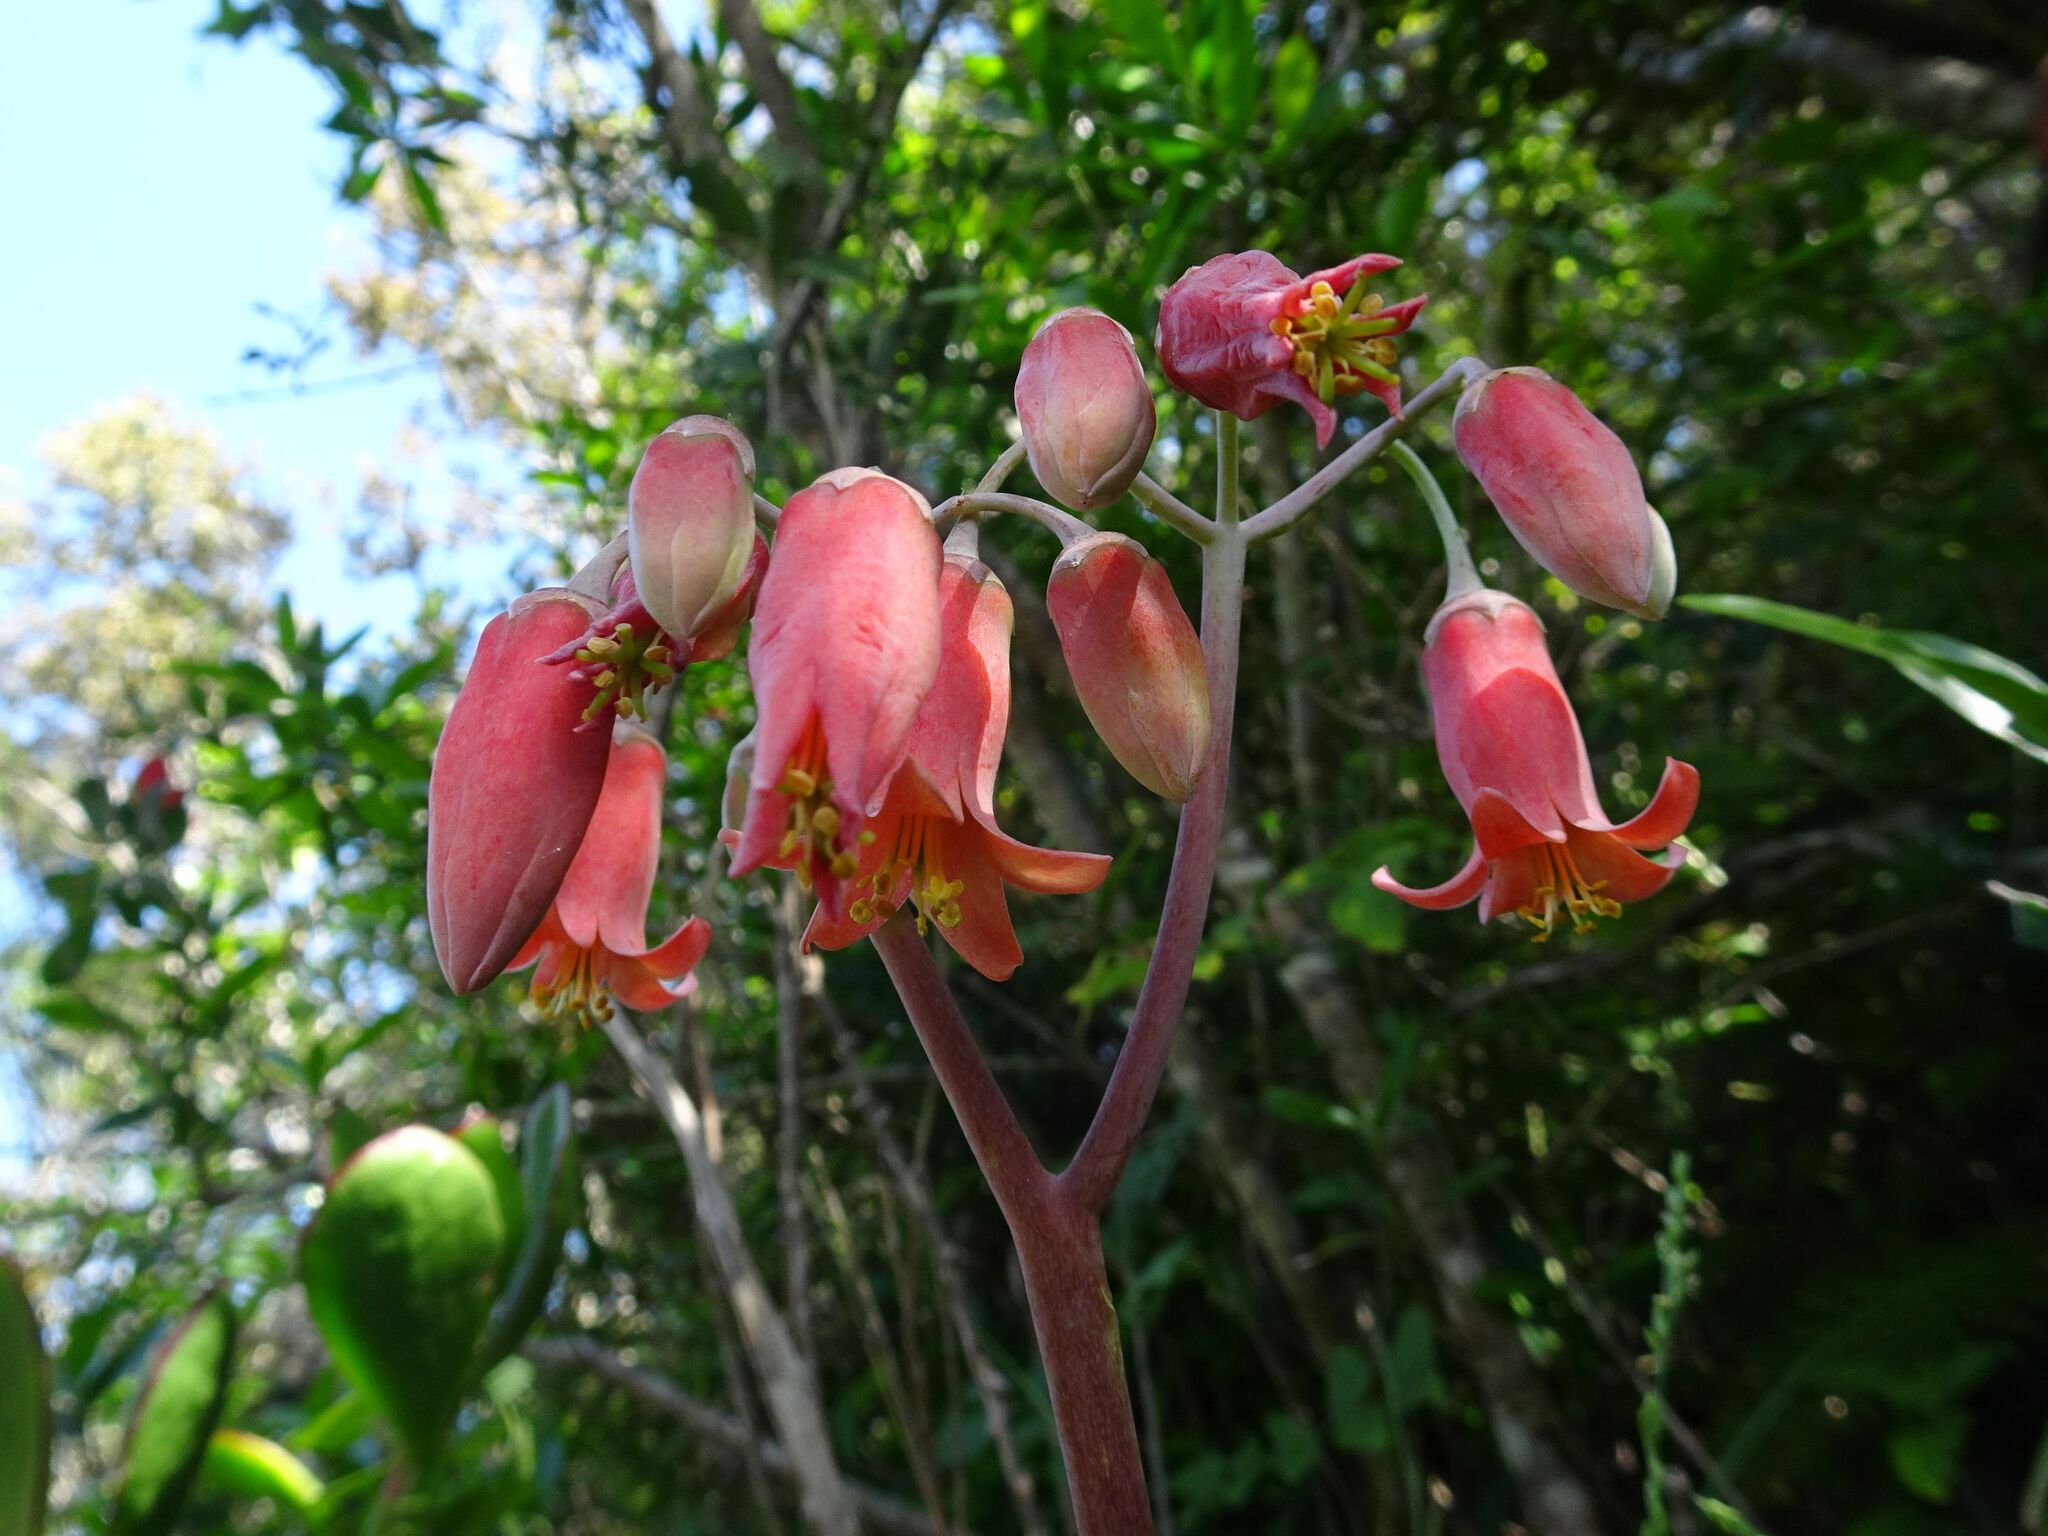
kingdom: Plantae
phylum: Tracheophyta
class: Magnoliopsida
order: Saxifragales
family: Crassulaceae
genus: Cotyledon
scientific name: Cotyledon orbiculata
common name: Pig's ear
